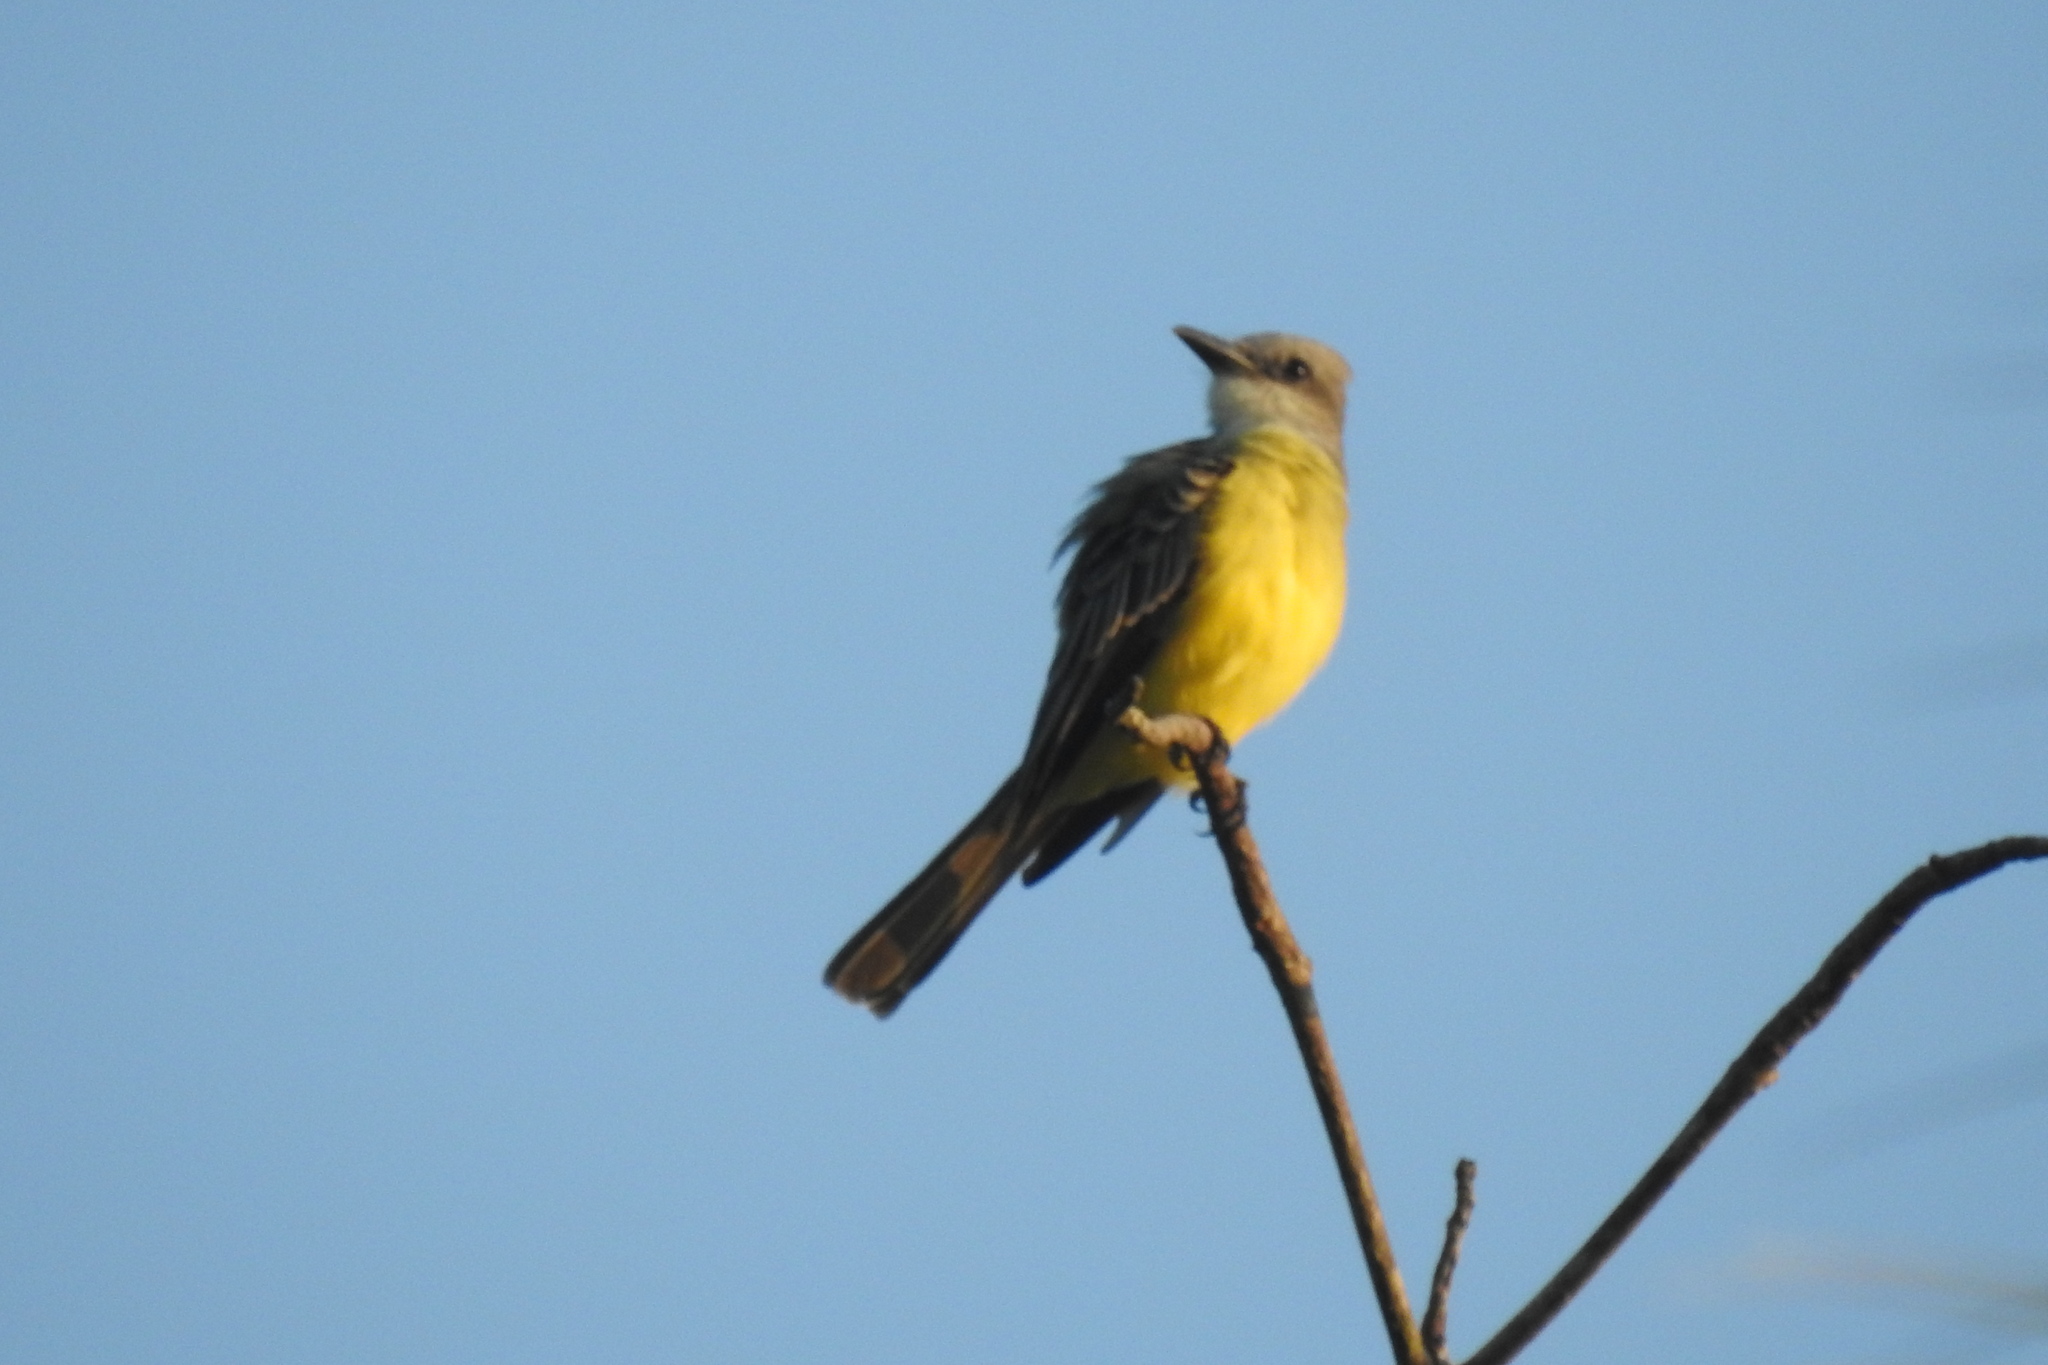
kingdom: Animalia
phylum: Chordata
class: Aves
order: Passeriformes
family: Tyrannidae
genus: Tyrannus
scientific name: Tyrannus melancholicus
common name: Tropical kingbird
